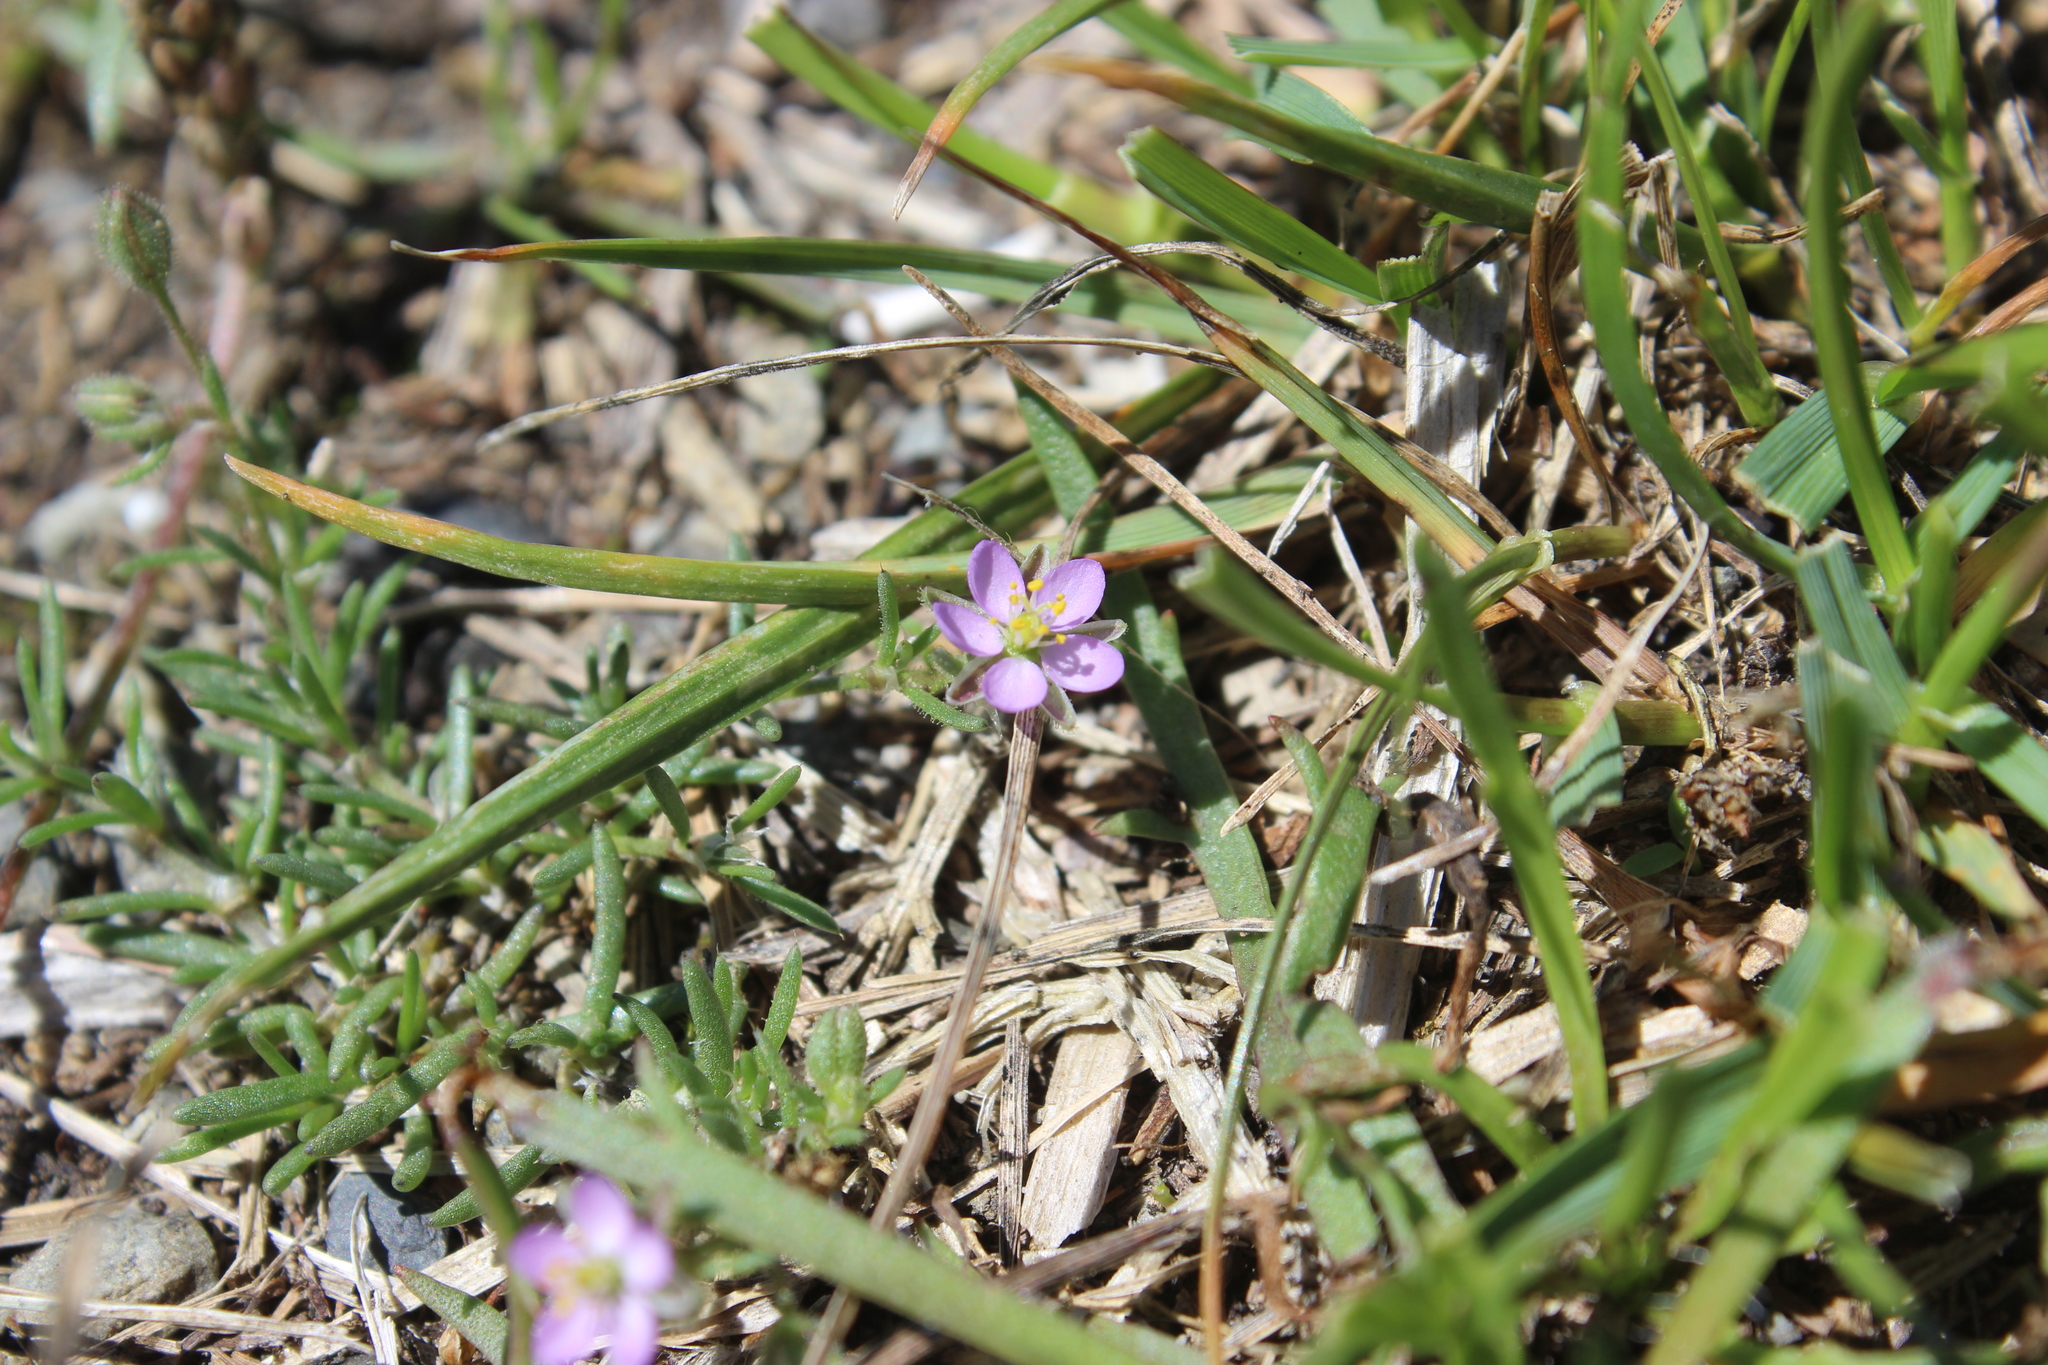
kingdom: Plantae
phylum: Tracheophyta
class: Magnoliopsida
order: Caryophyllales
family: Caryophyllaceae
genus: Spergularia
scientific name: Spergularia rubra
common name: Red sand-spurrey
